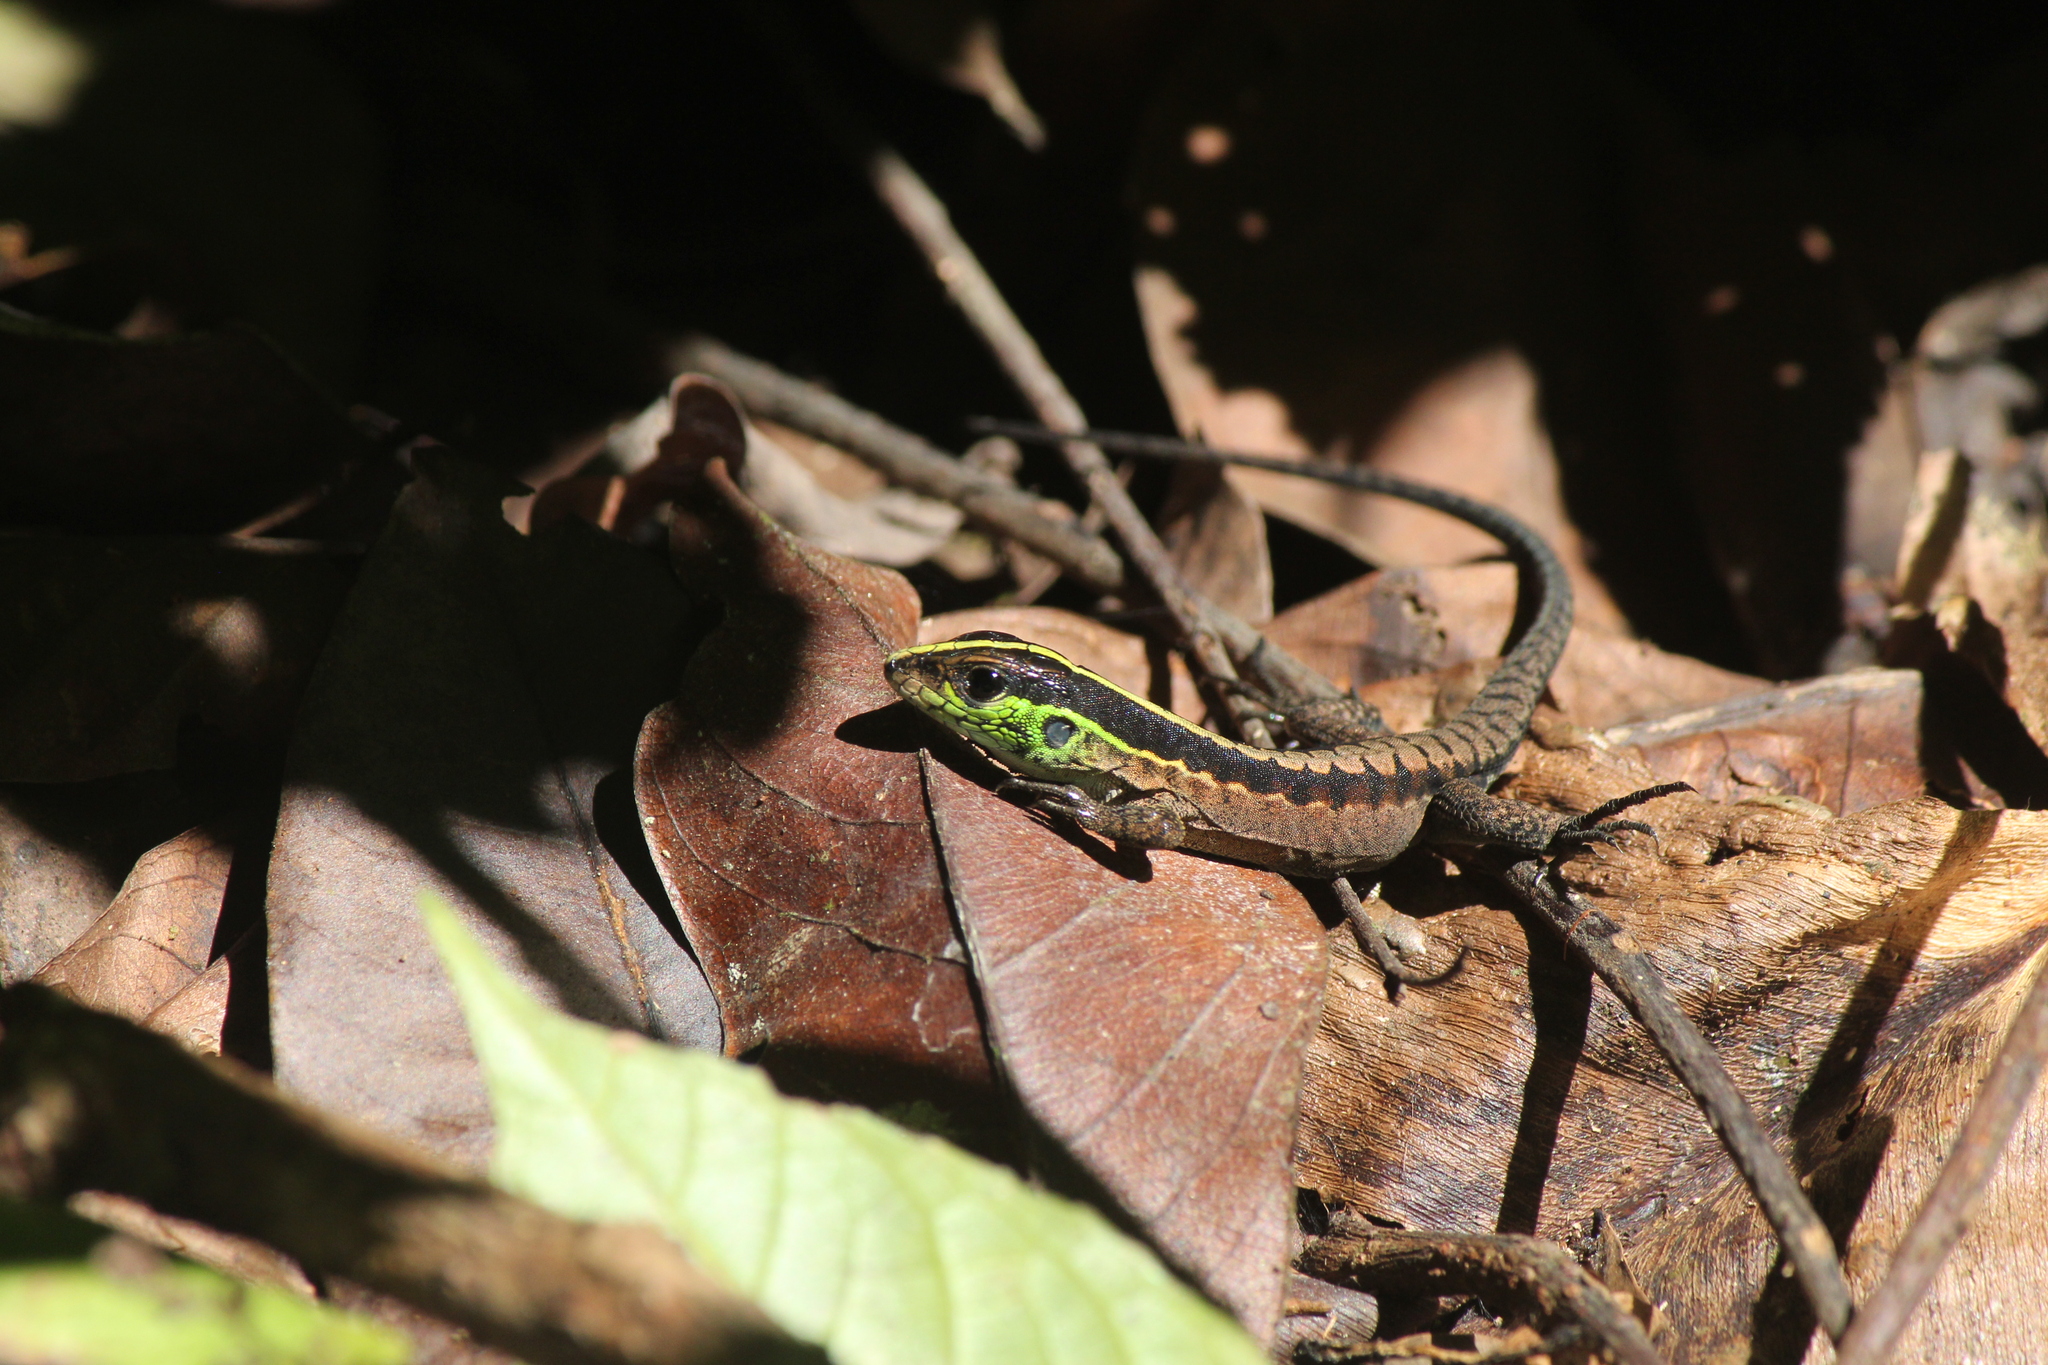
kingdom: Animalia
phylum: Chordata
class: Squamata
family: Teiidae
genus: Kentropyx
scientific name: Kentropyx pelviceps
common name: Forest whiptail
